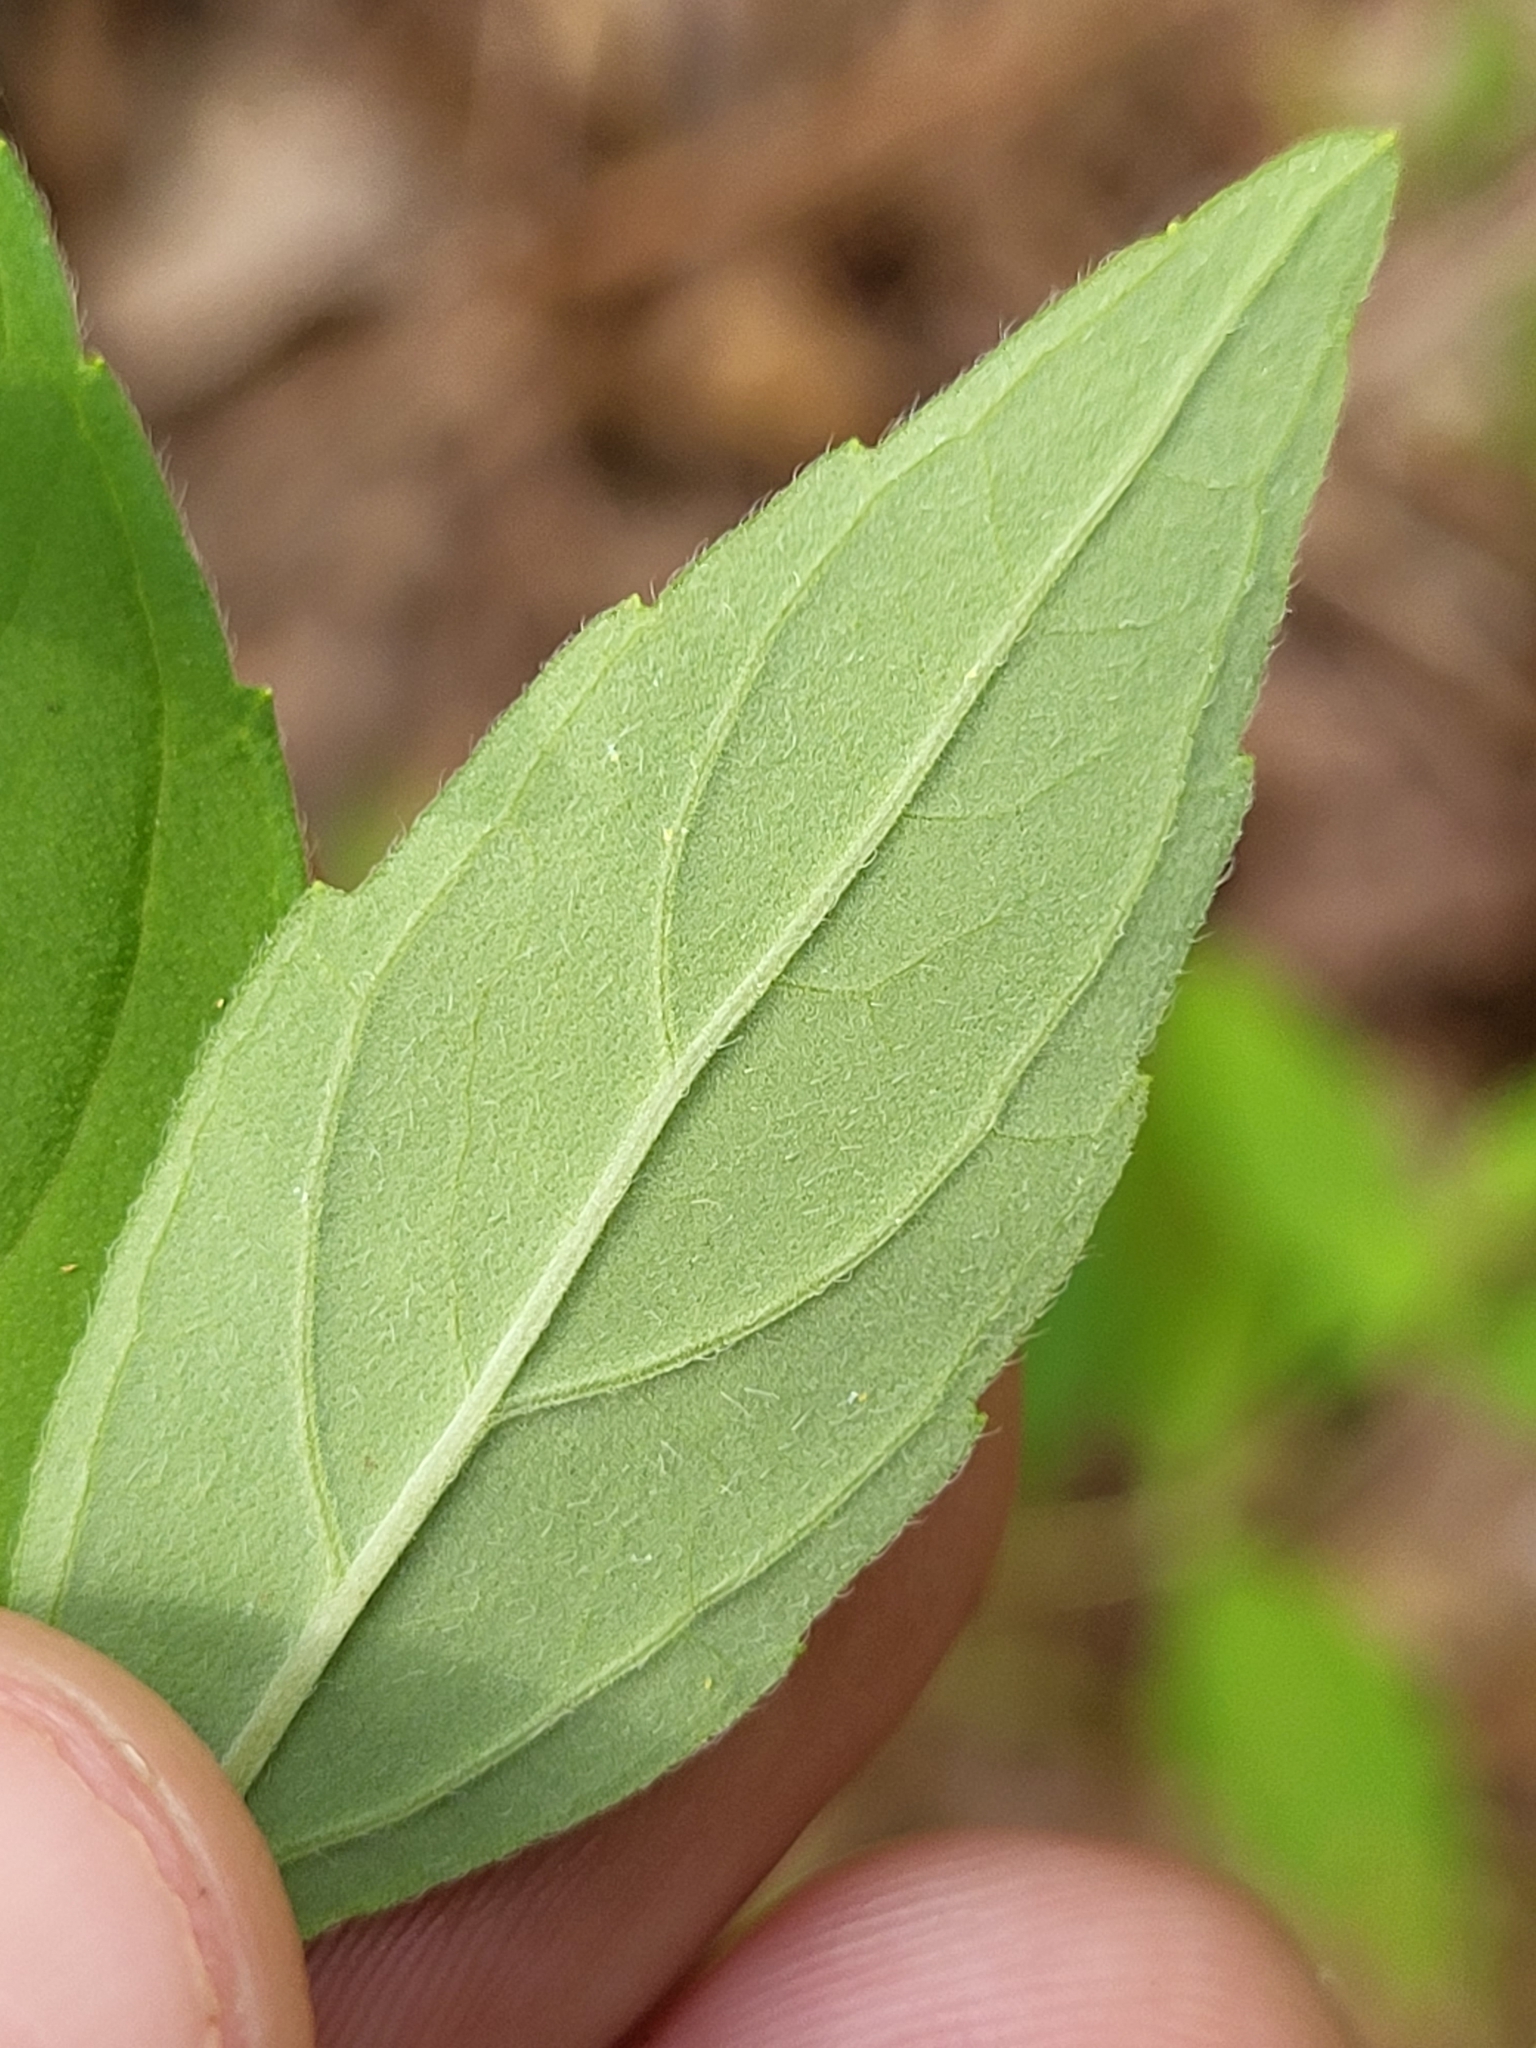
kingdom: Plantae
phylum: Tracheophyta
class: Magnoliopsida
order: Lamiales
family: Lamiaceae
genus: Pycnanthemum
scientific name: Pycnanthemum albescens
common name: White-leaf mountain-mint
